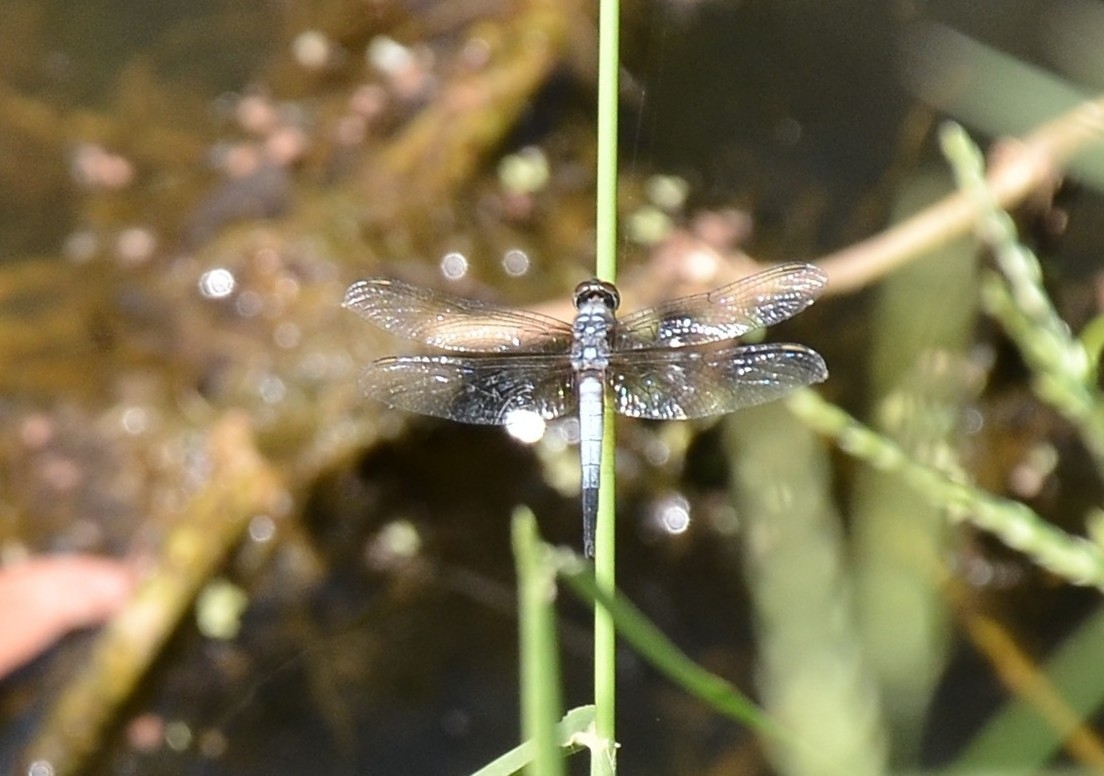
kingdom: Animalia
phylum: Arthropoda
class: Insecta
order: Odonata
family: Libellulidae
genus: Brachydiplax
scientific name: Brachydiplax chalybea
